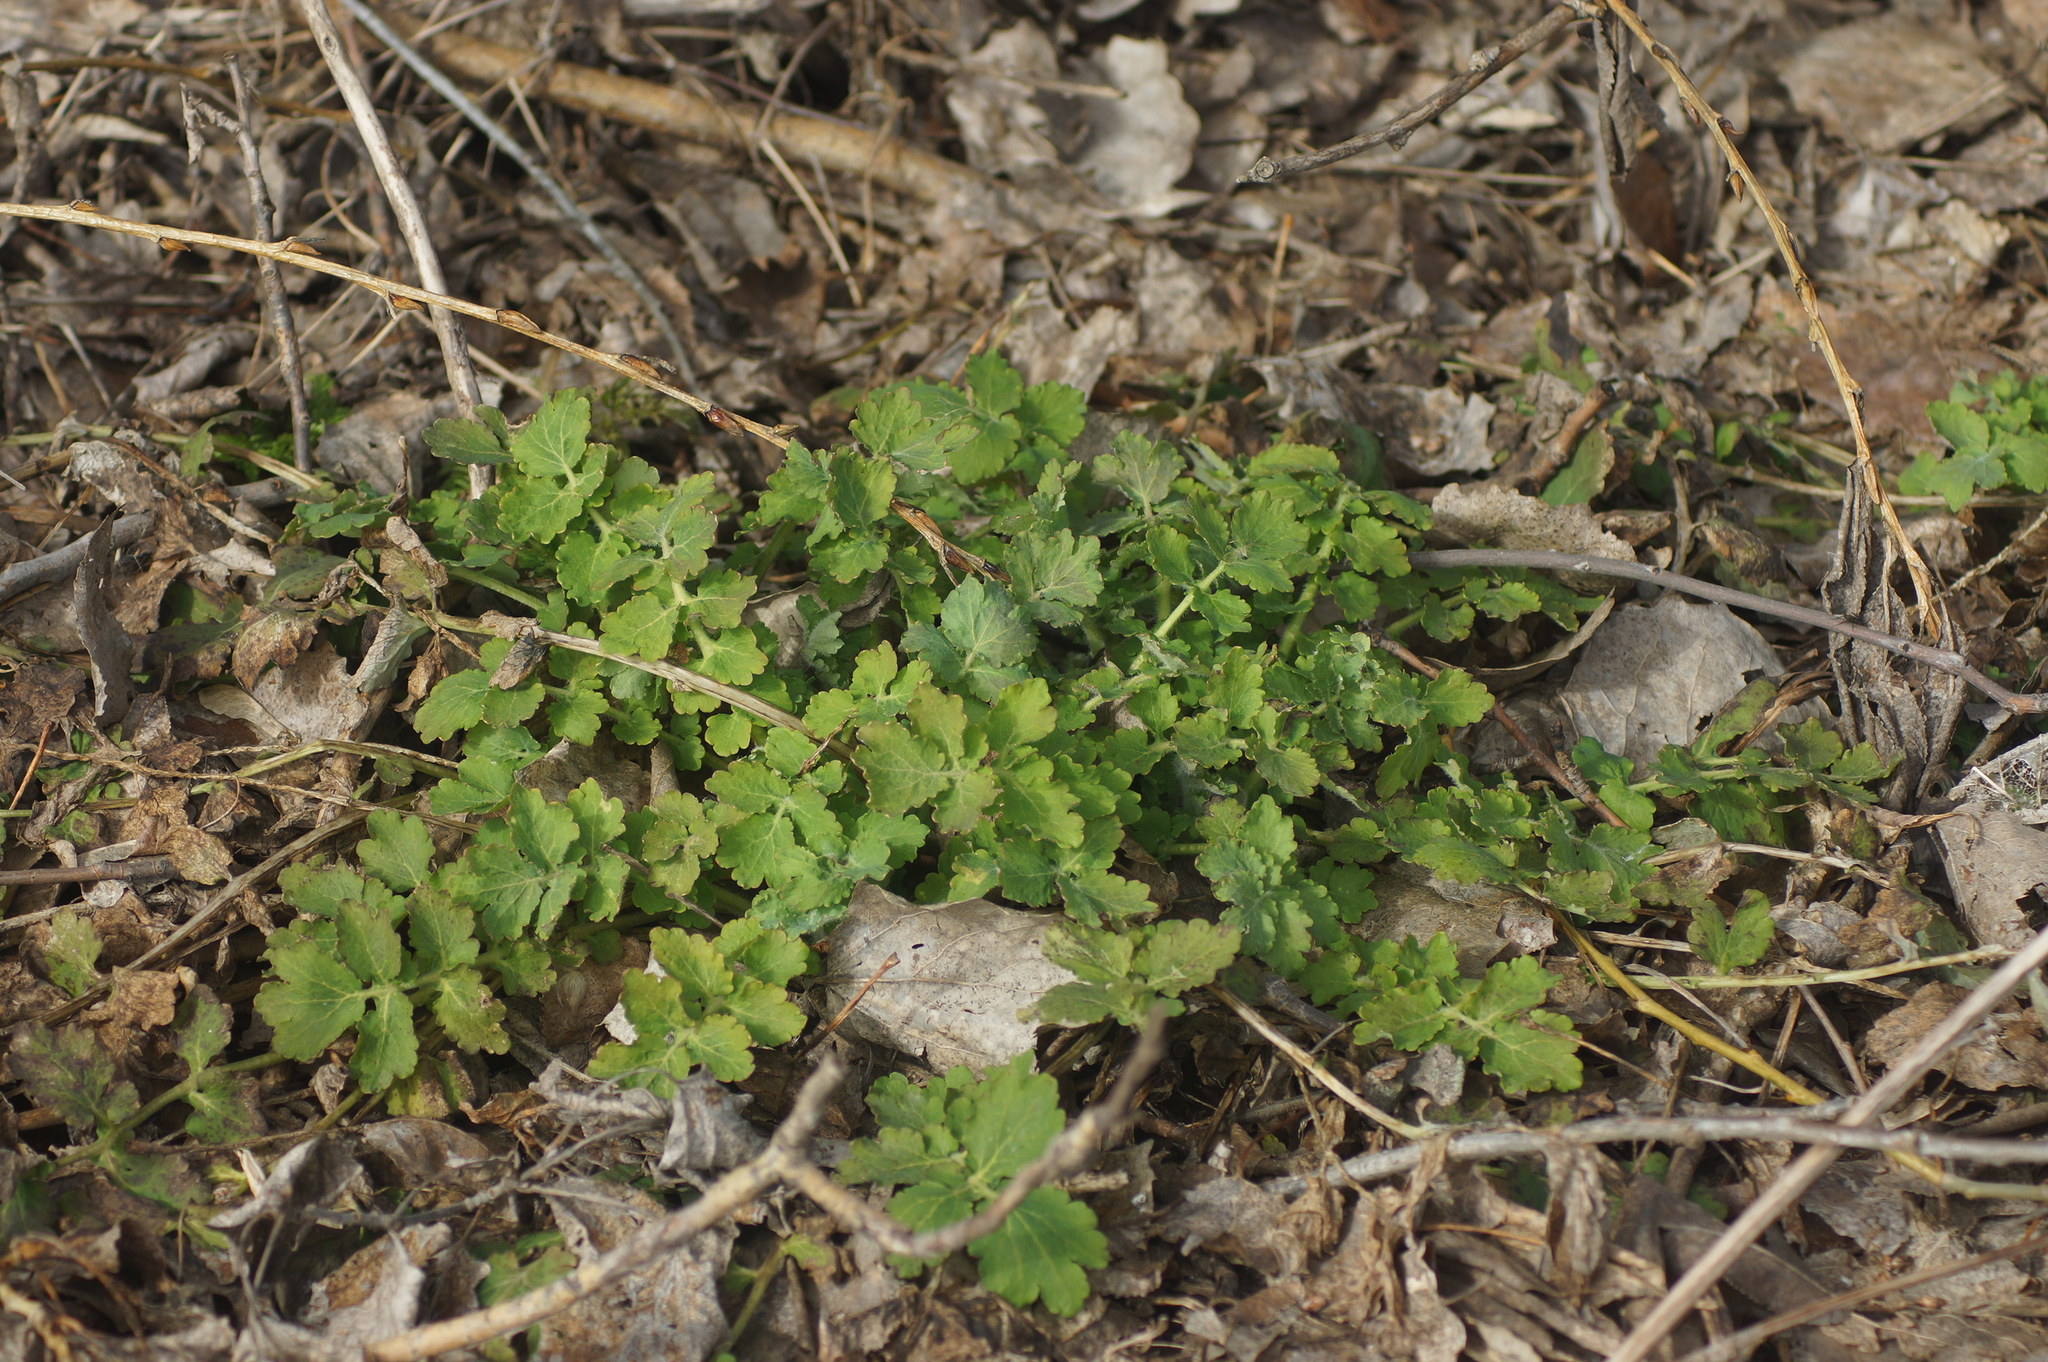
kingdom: Plantae
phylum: Tracheophyta
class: Magnoliopsida
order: Ranunculales
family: Papaveraceae
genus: Chelidonium
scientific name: Chelidonium majus
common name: Greater celandine
